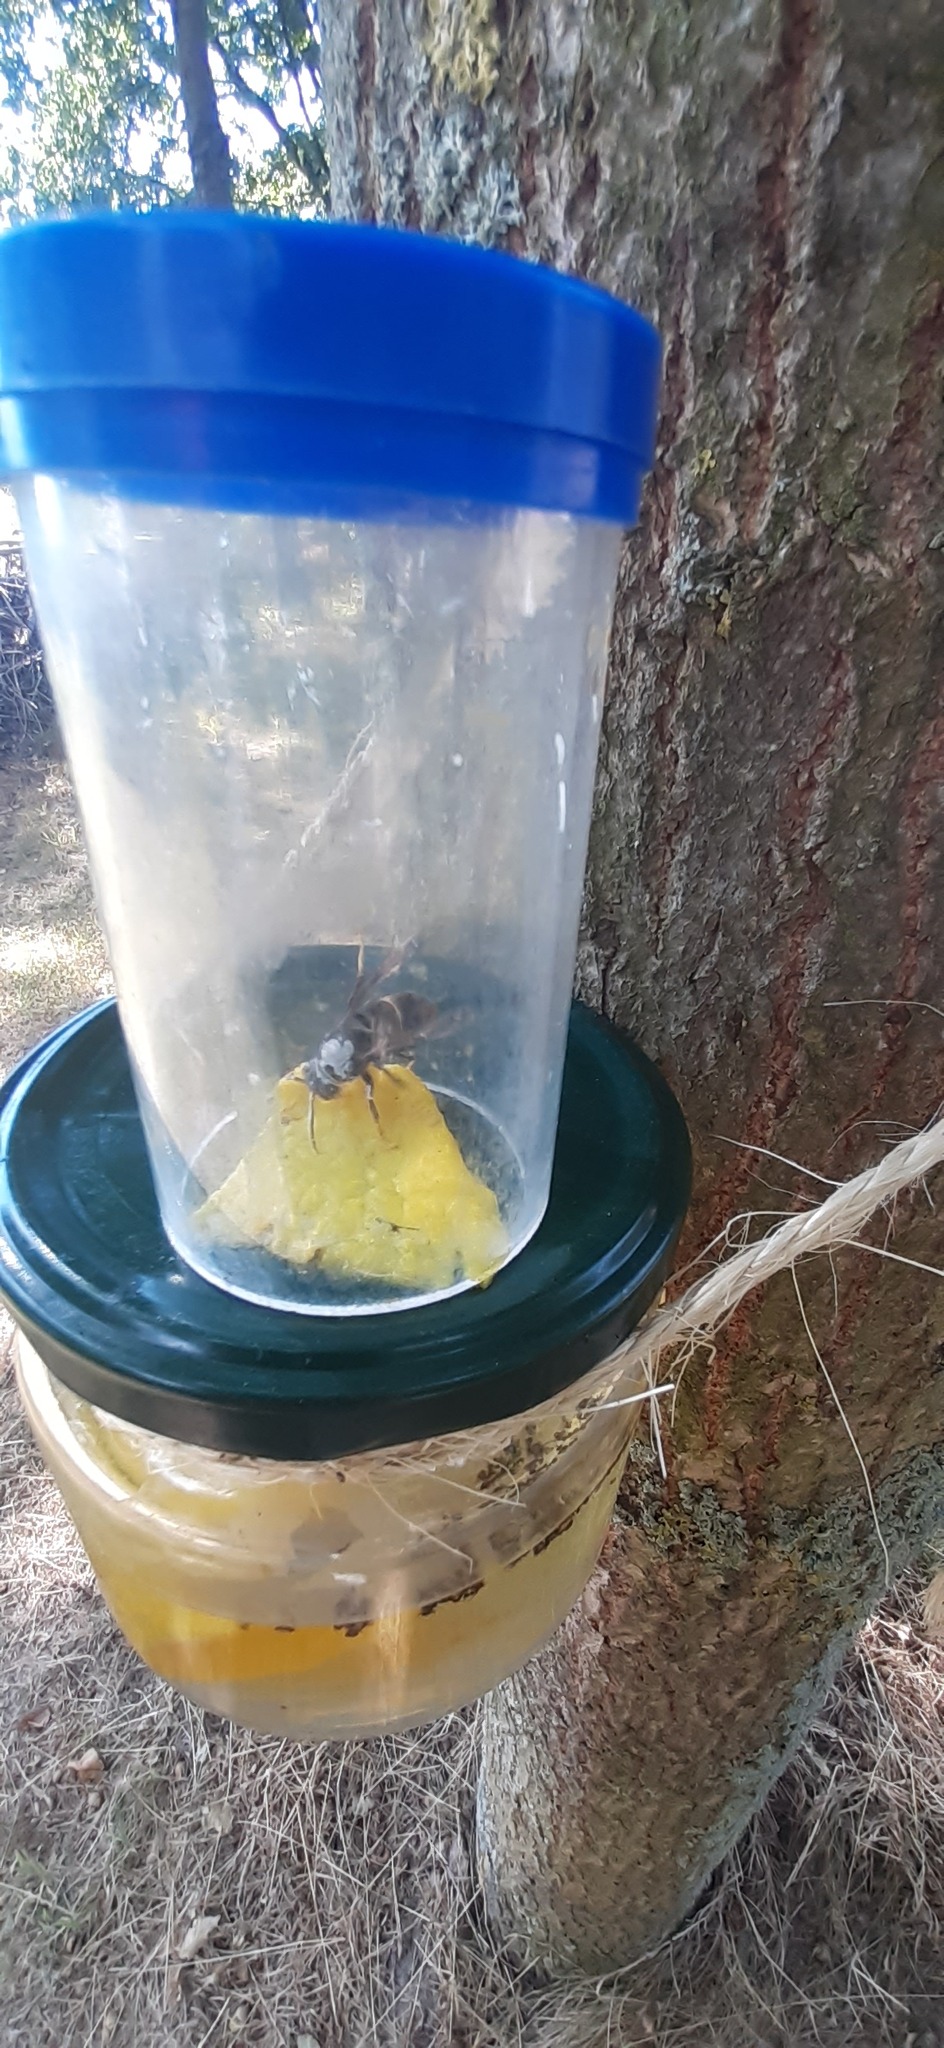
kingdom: Animalia
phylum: Arthropoda
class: Insecta
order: Hymenoptera
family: Vespidae
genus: Vespa
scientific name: Vespa velutina
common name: Asian hornet
